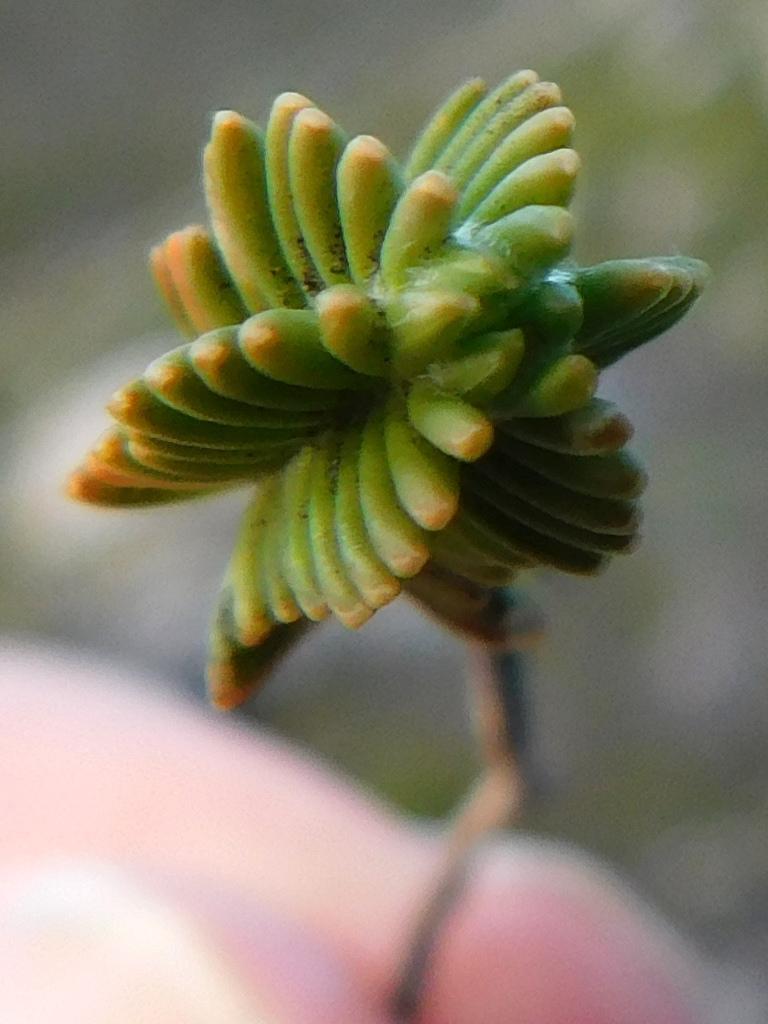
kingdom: Plantae
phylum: Tracheophyta
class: Magnoliopsida
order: Lamiales
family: Stilbaceae
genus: Stilbe
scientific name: Stilbe rupestris
